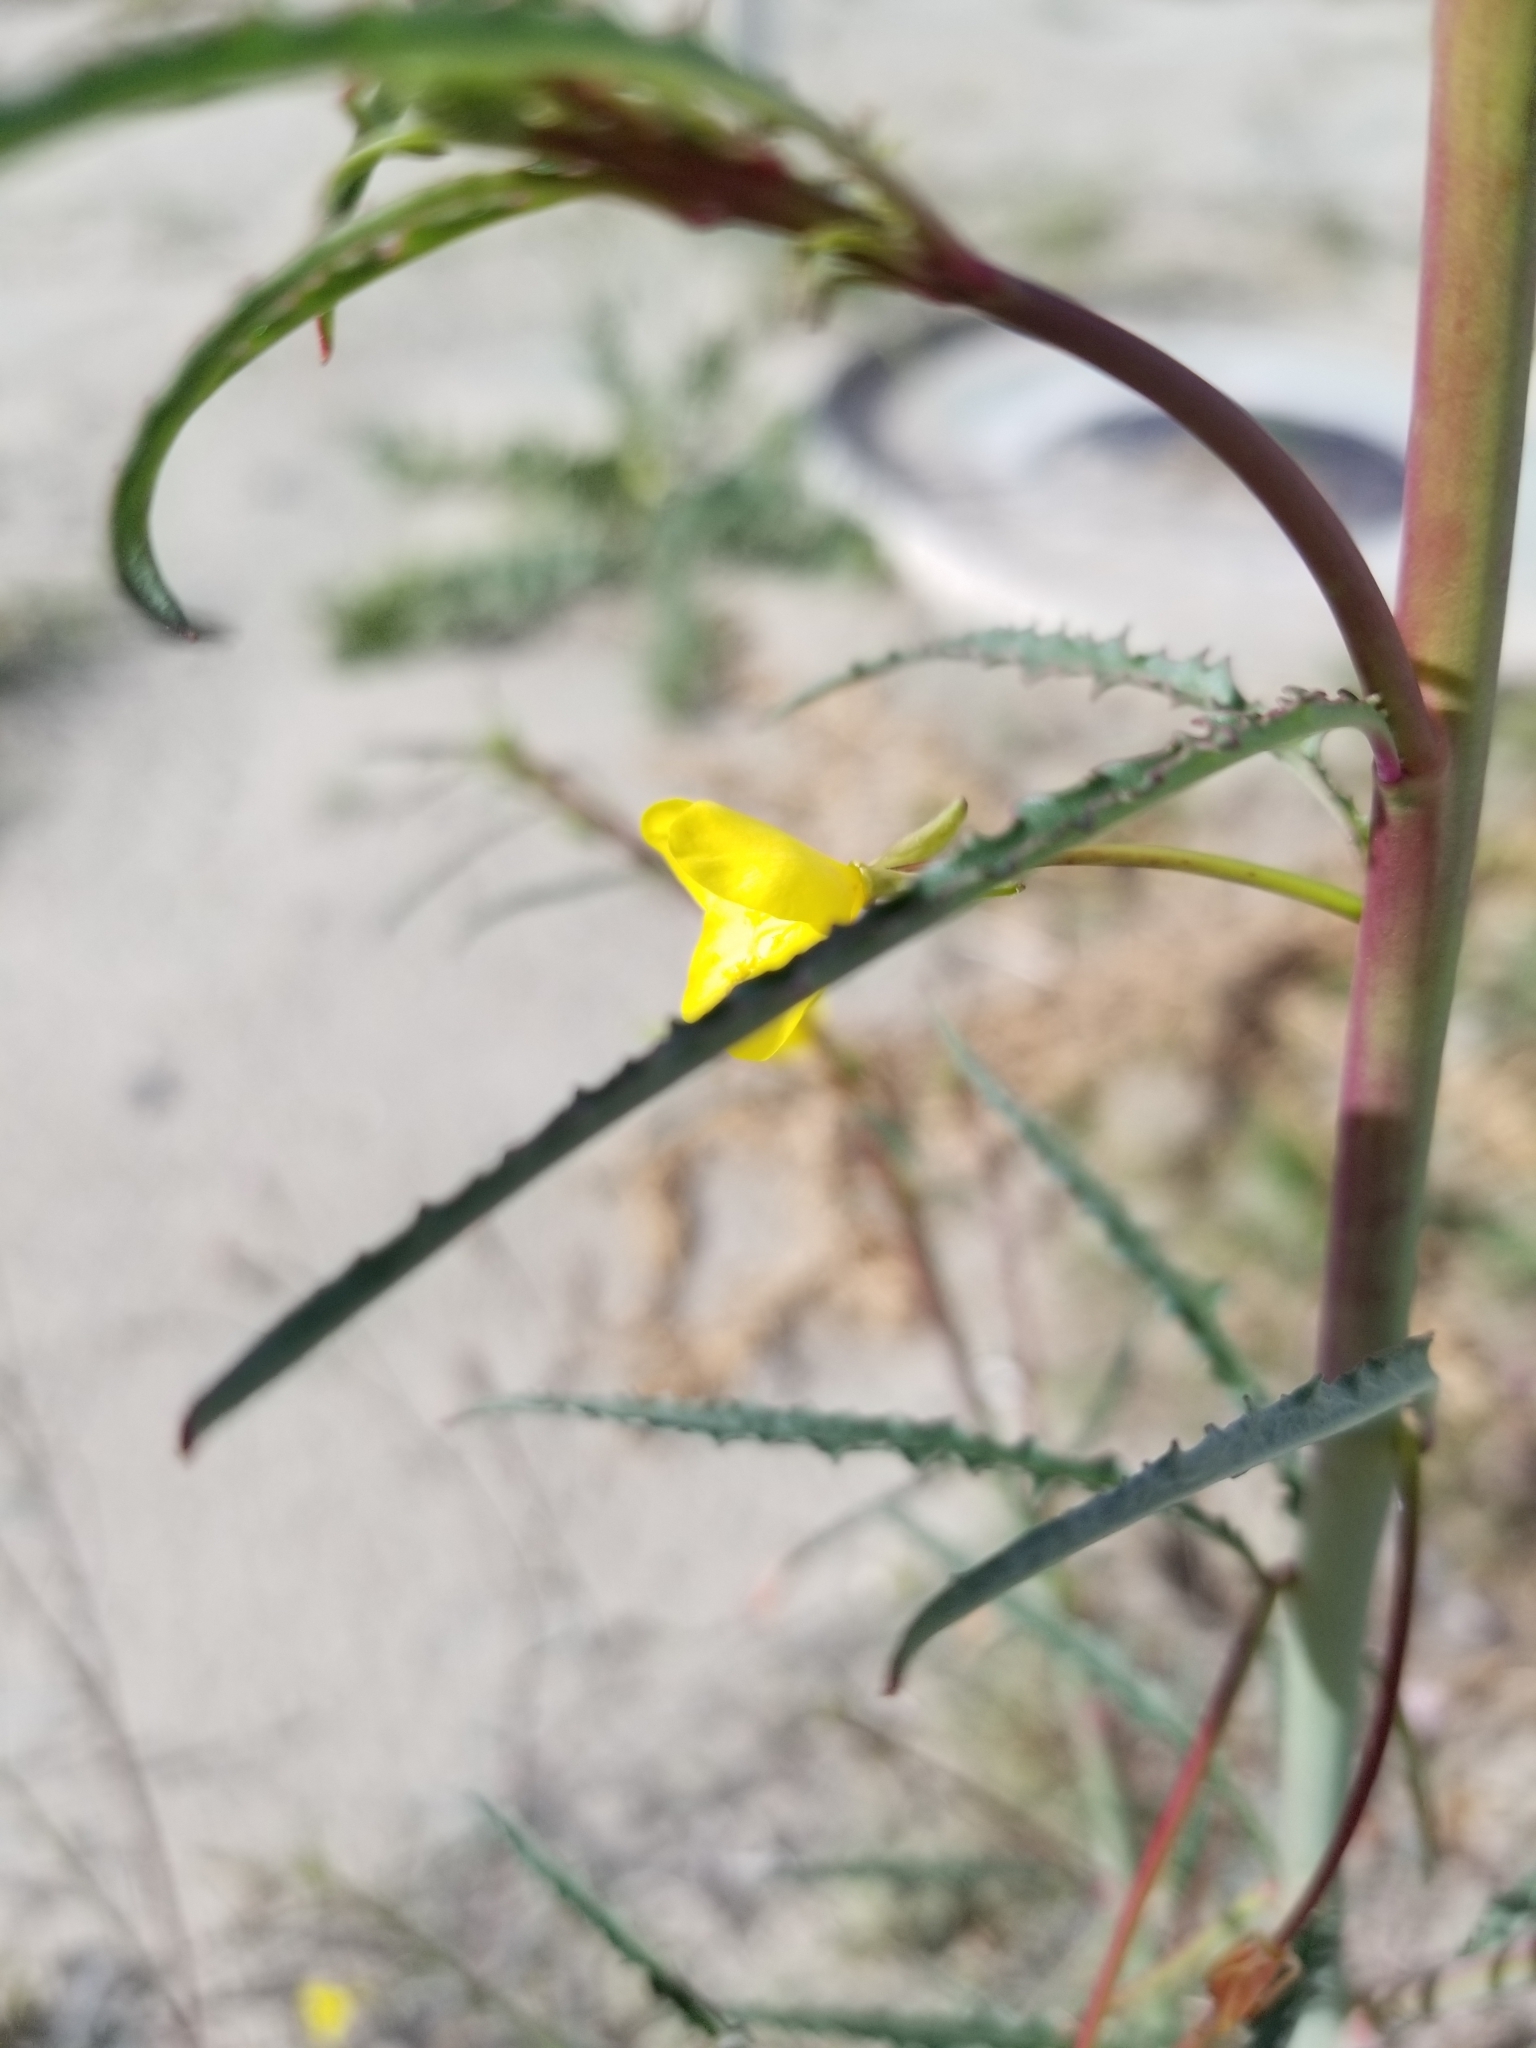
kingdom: Plantae
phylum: Tracheophyta
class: Magnoliopsida
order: Myrtales
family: Onagraceae
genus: Eulobus
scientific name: Eulobus californicus
